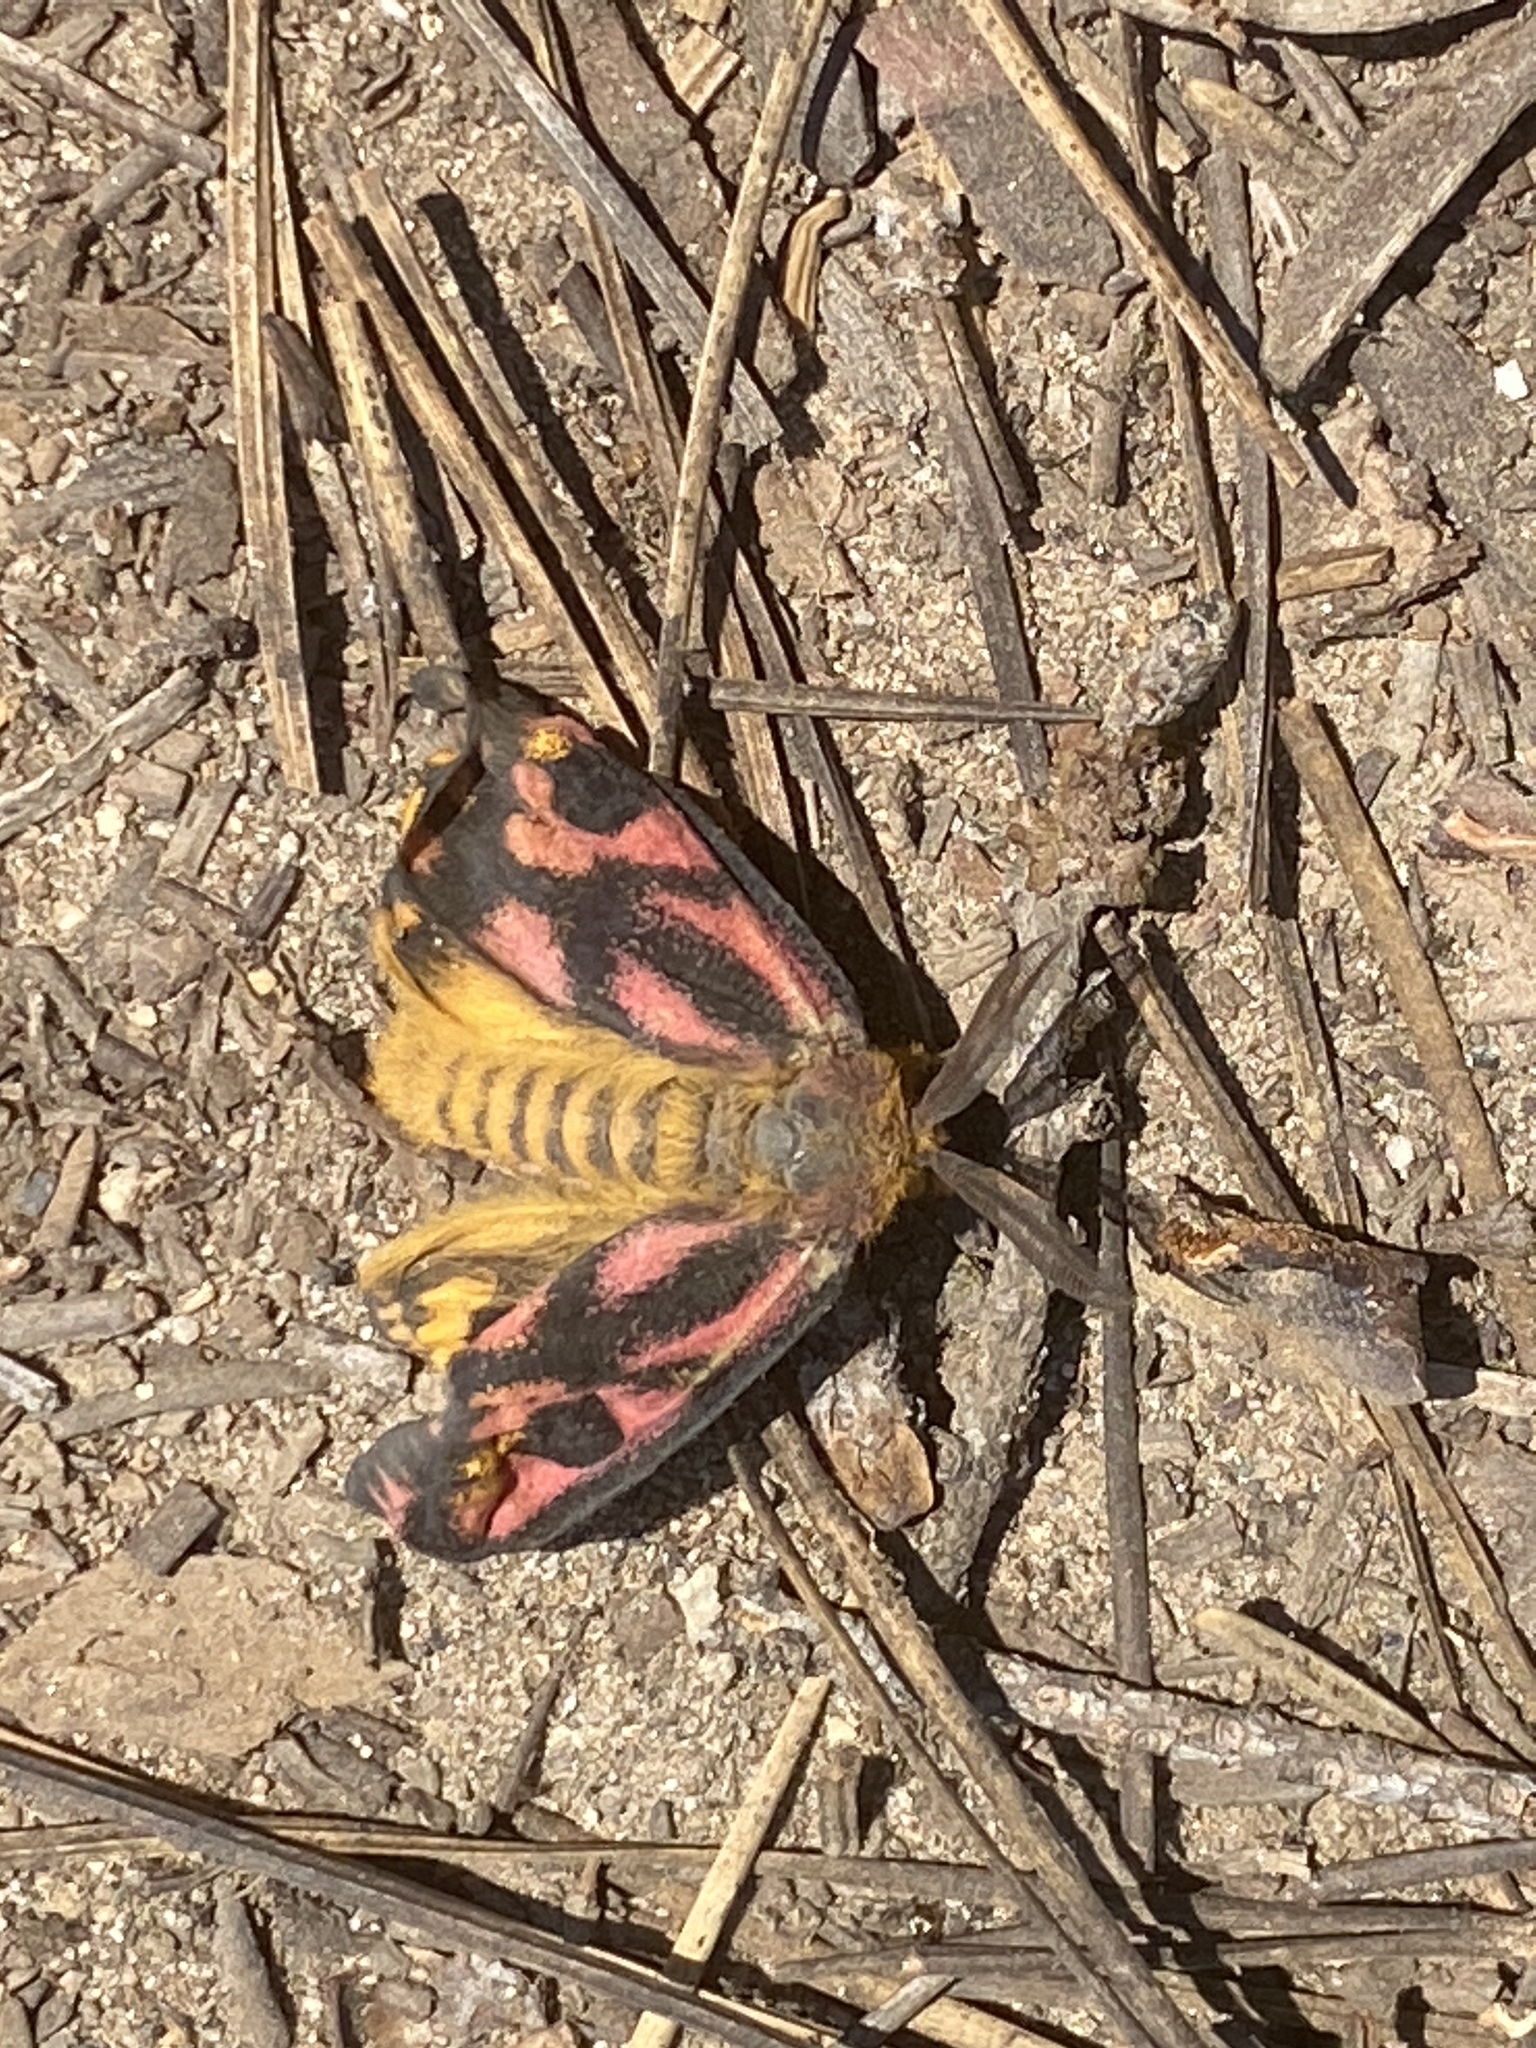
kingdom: Animalia
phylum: Arthropoda
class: Insecta
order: Lepidoptera
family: Saturniidae
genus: Hemileuca
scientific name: Hemileuca eglanterina
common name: Western sheepmoth
